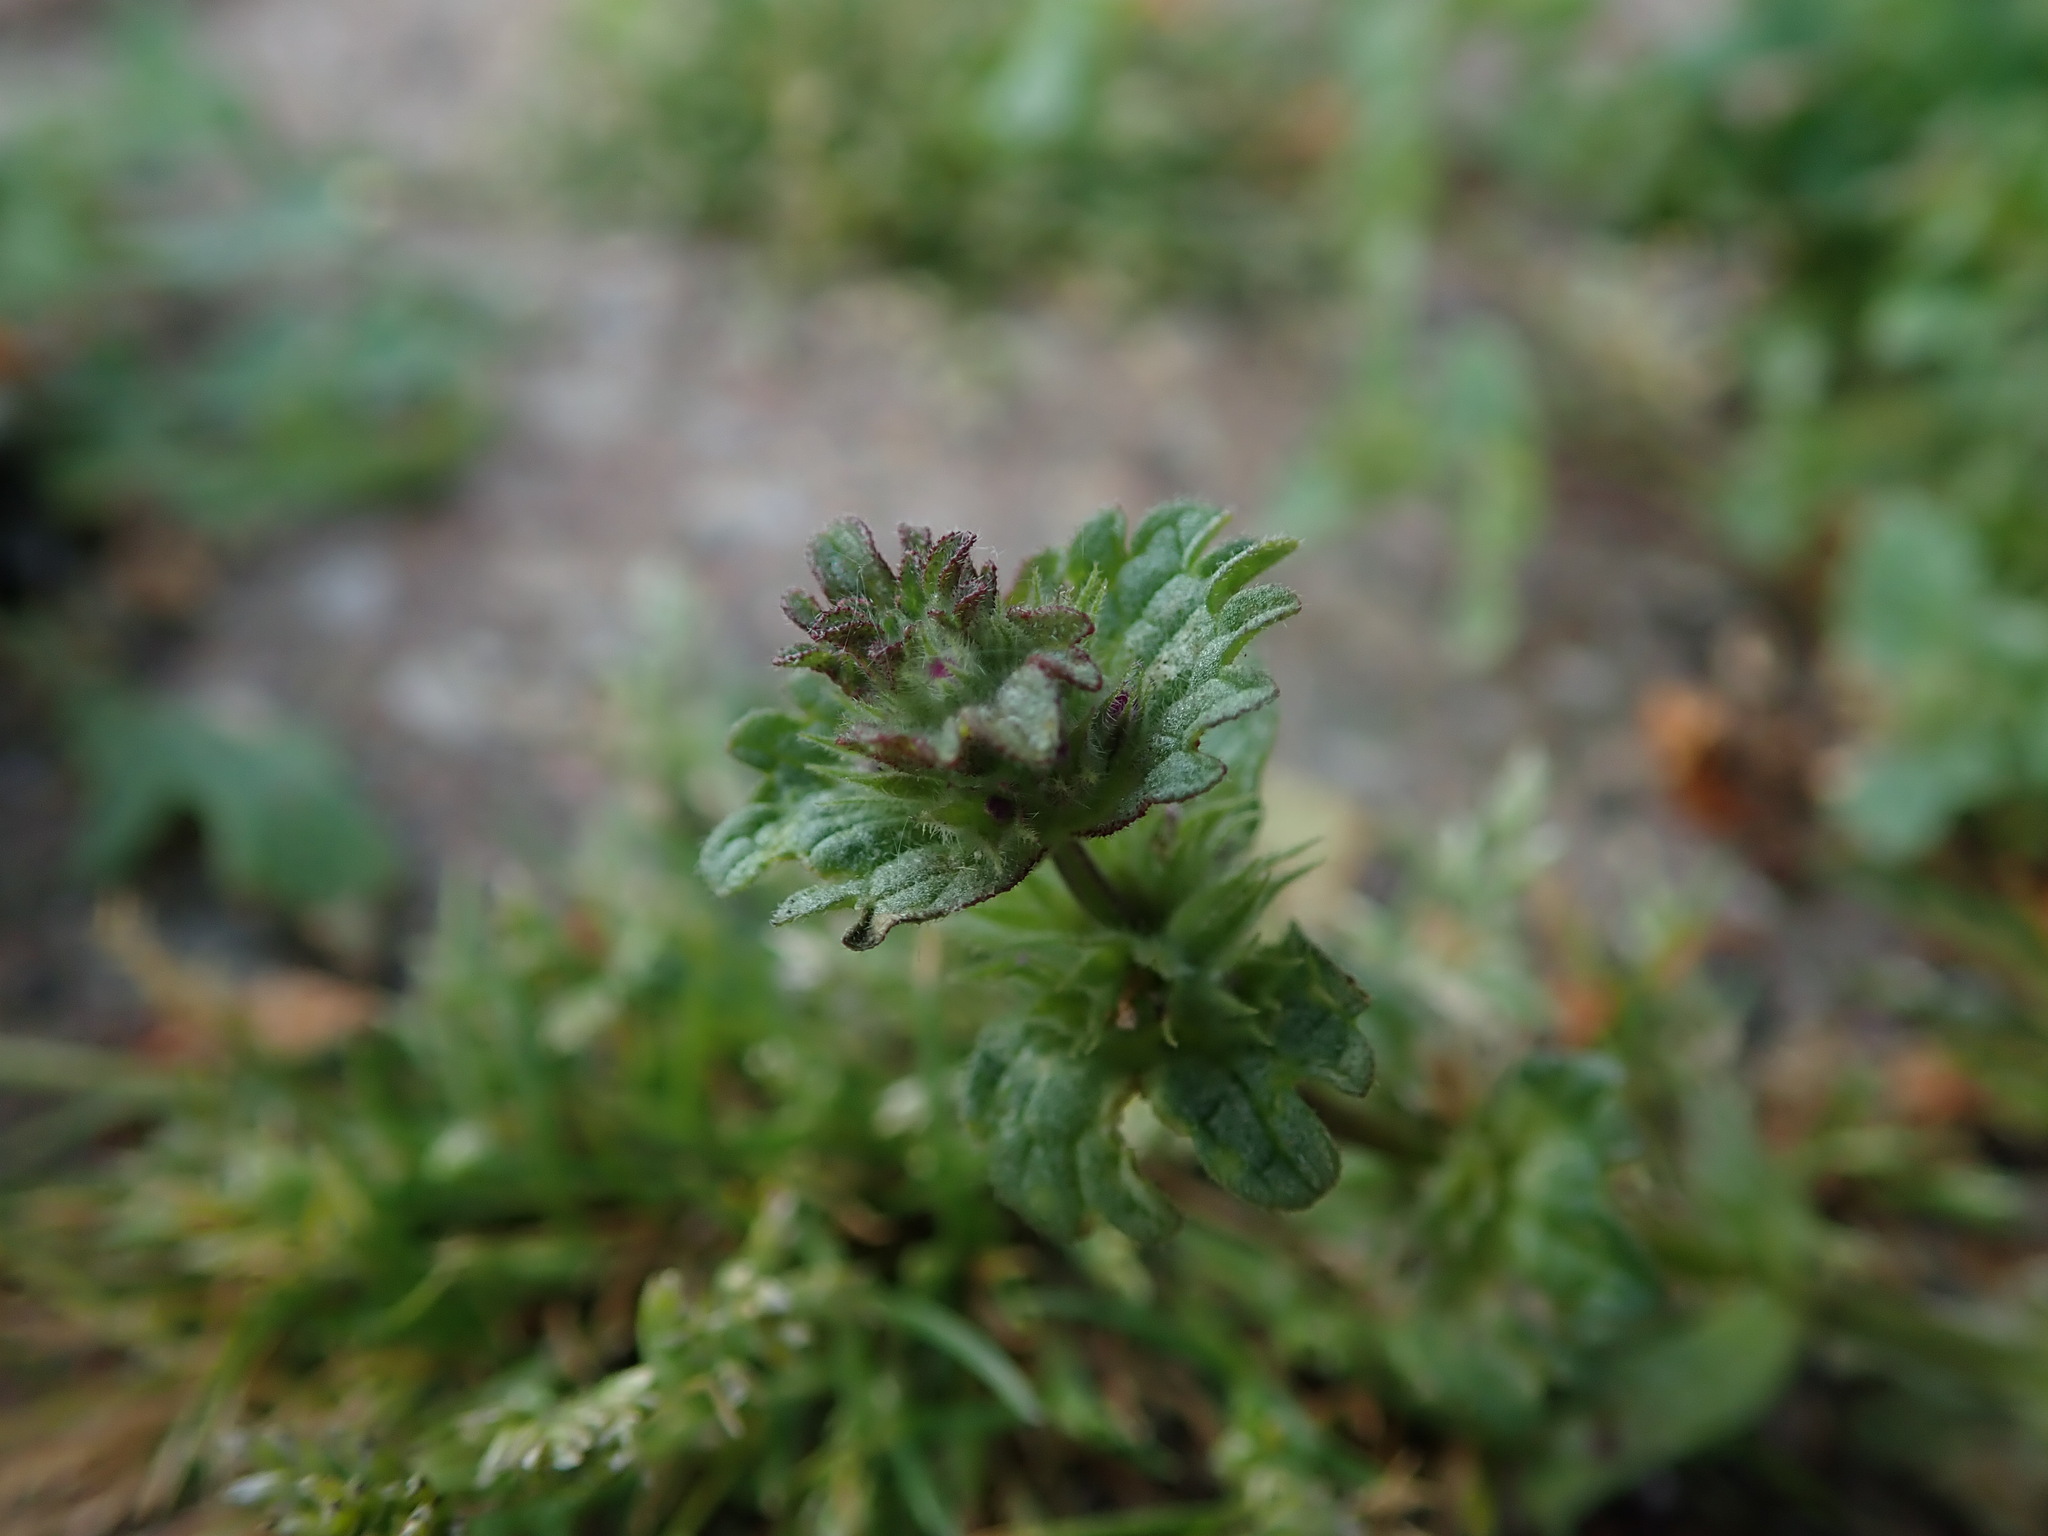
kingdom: Plantae
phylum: Tracheophyta
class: Magnoliopsida
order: Lamiales
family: Lamiaceae
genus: Lamium
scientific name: Lamium amplexicaule
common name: Henbit dead-nettle
